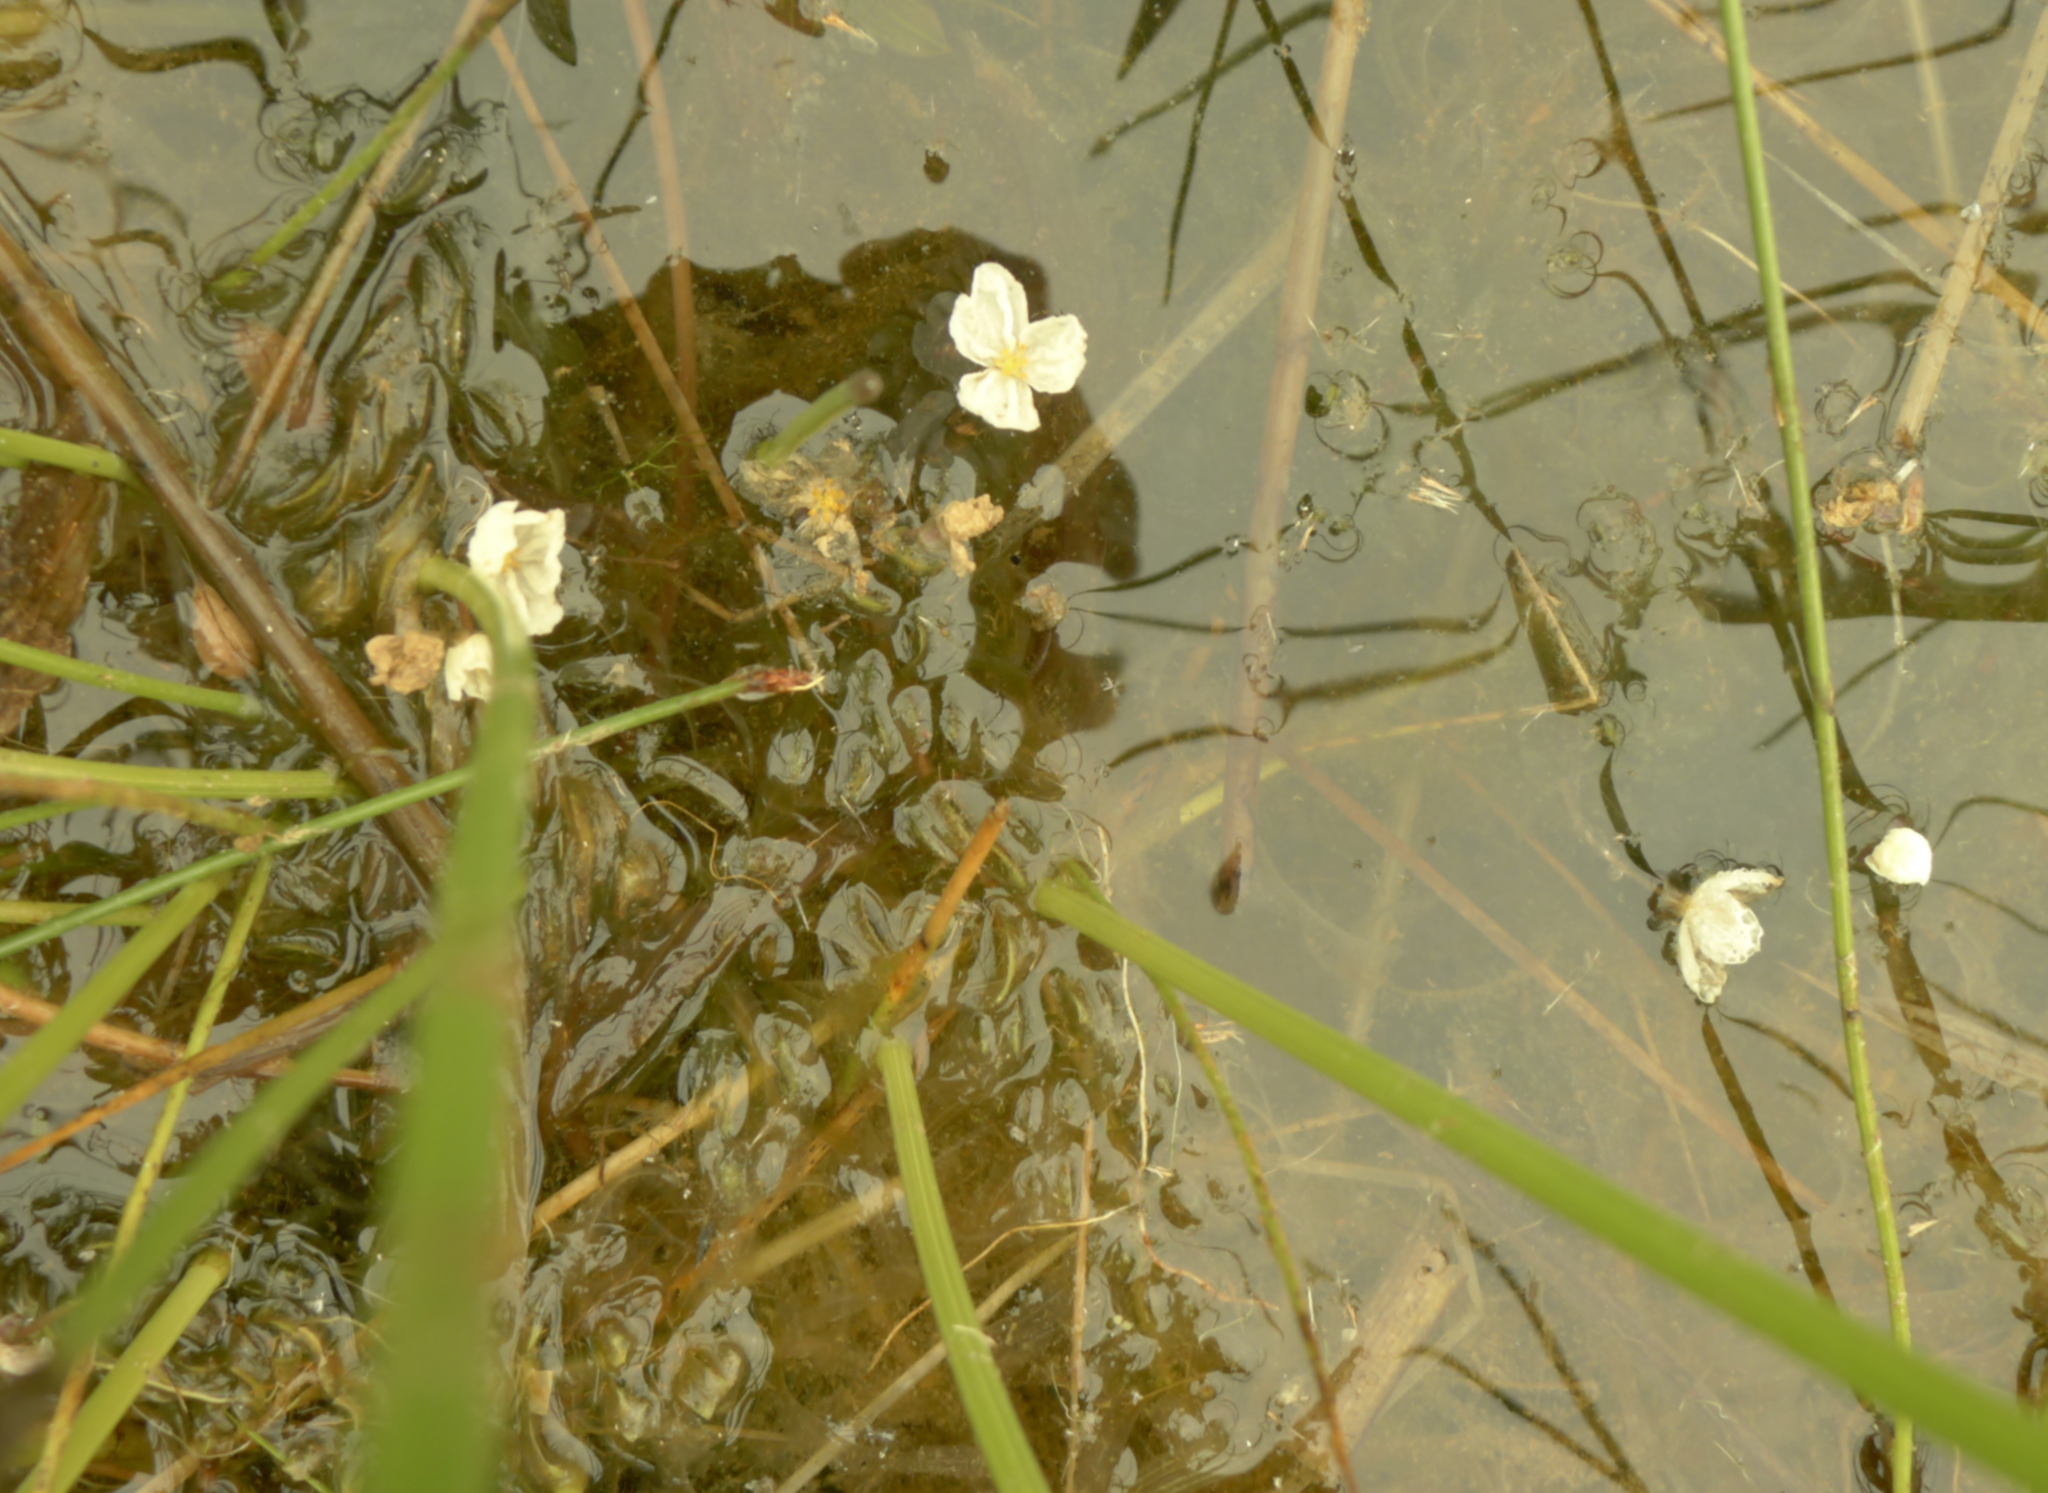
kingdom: Plantae
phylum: Tracheophyta
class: Liliopsida
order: Alismatales
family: Hydrocharitaceae
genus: Elodea
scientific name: Elodea densa
